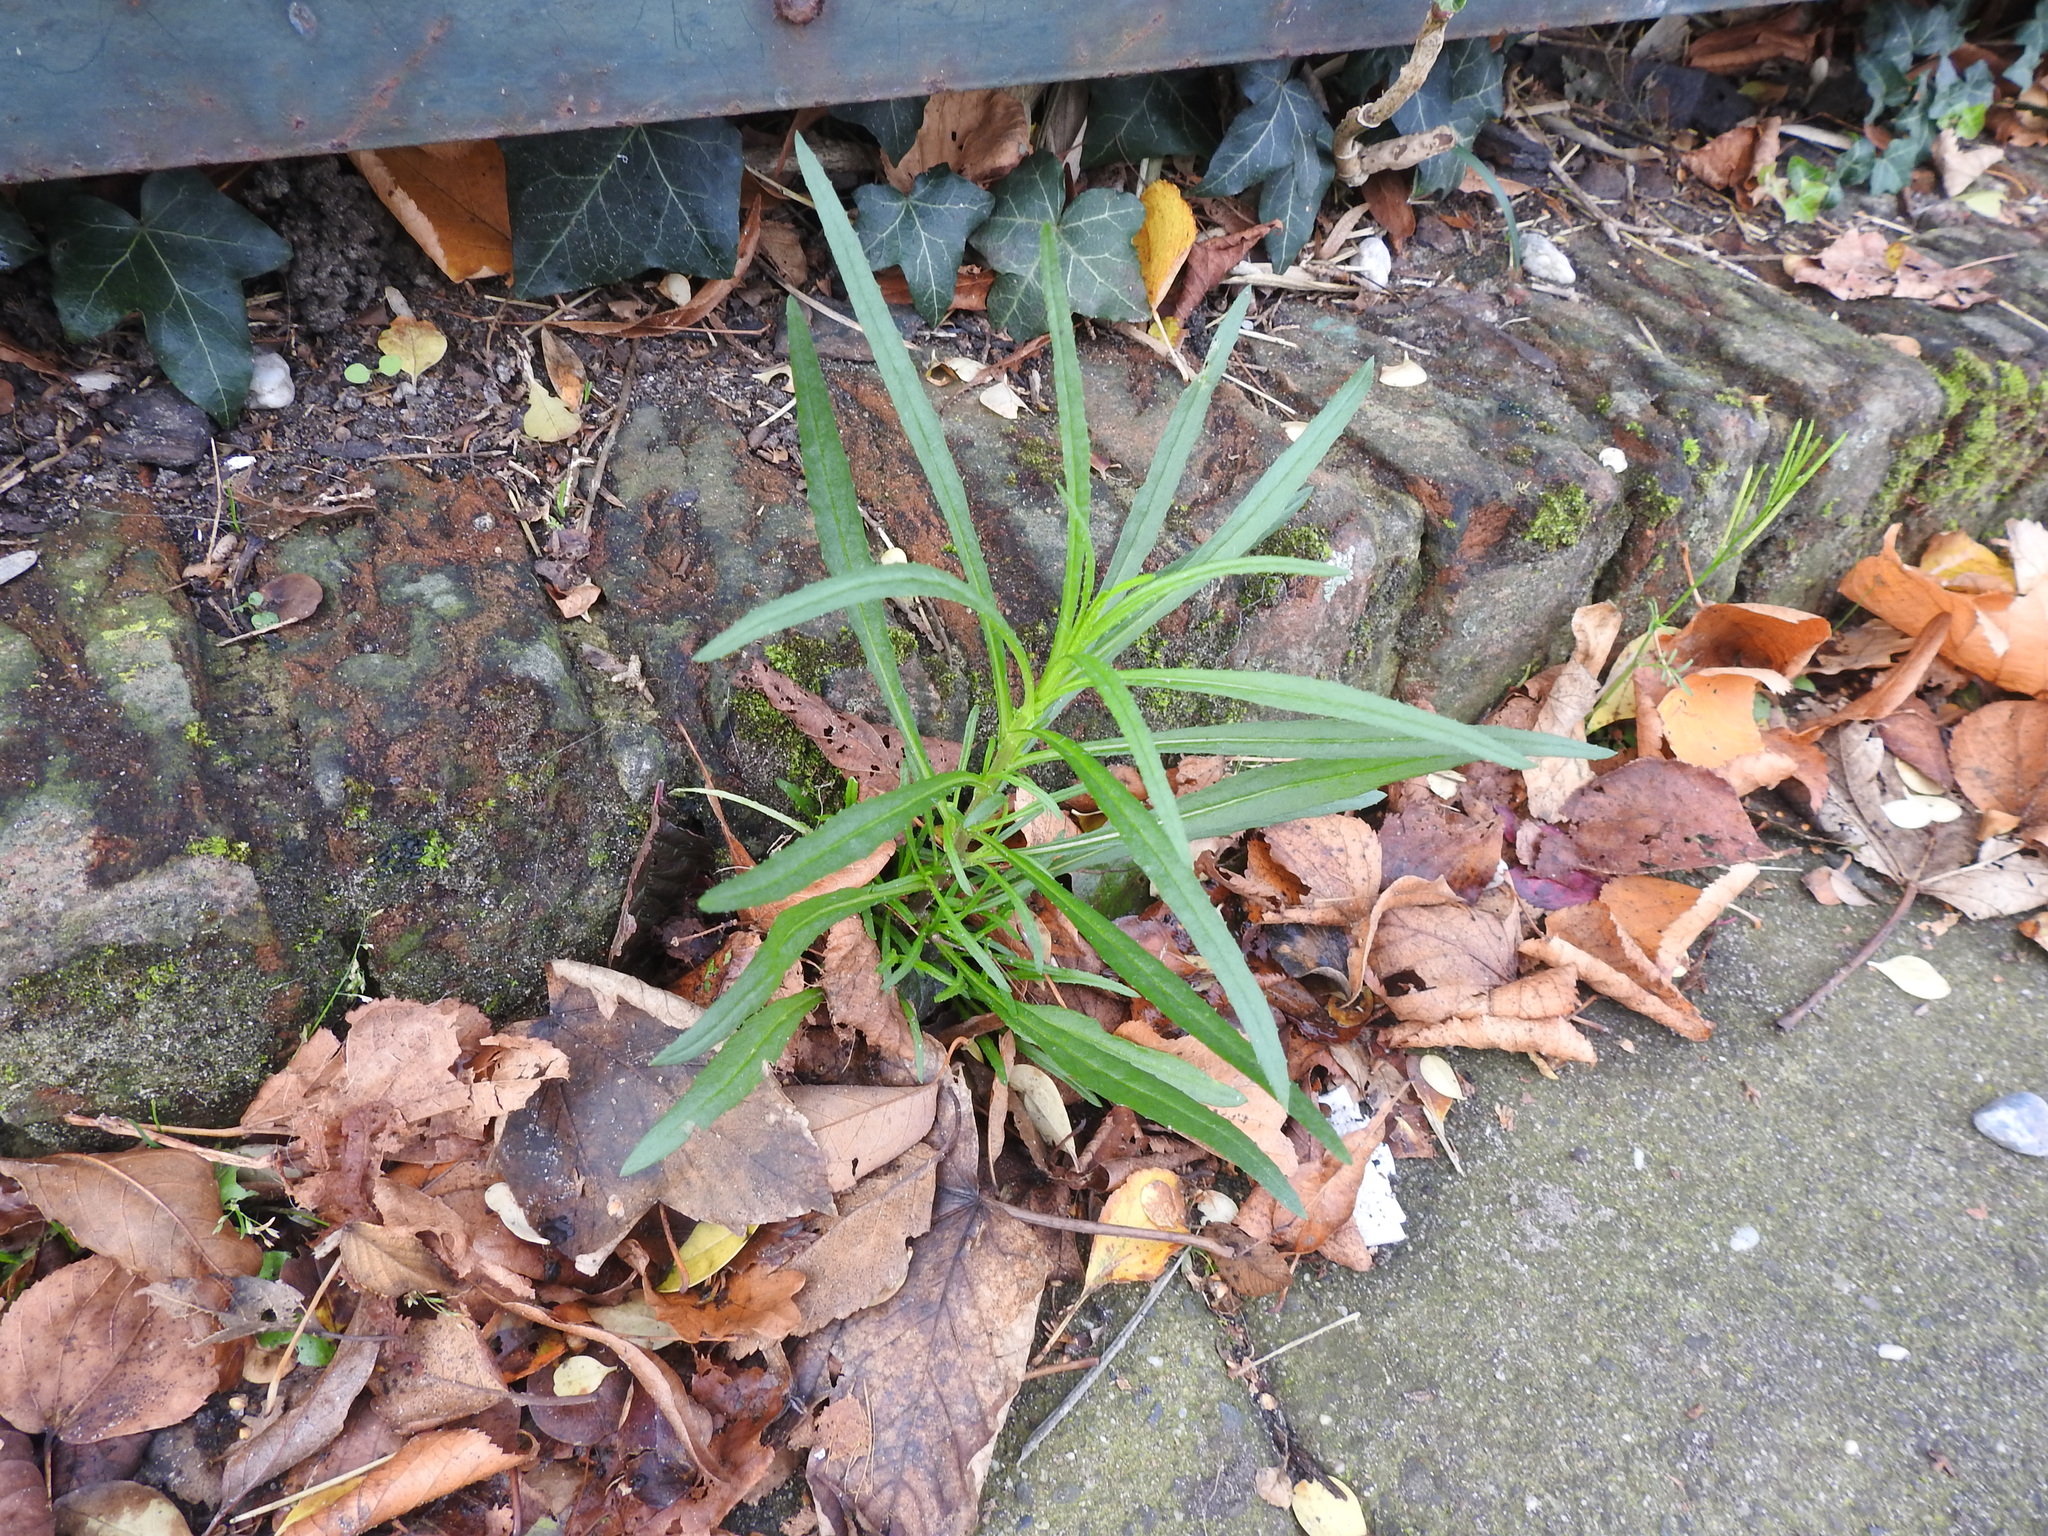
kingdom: Plantae
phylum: Tracheophyta
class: Magnoliopsida
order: Asterales
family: Asteraceae
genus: Senecio
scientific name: Senecio inaequidens
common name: Narrow-leaved ragwort
